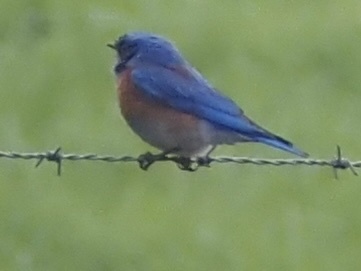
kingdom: Animalia
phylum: Chordata
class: Aves
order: Passeriformes
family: Turdidae
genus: Sialia
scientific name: Sialia mexicana
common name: Western bluebird
